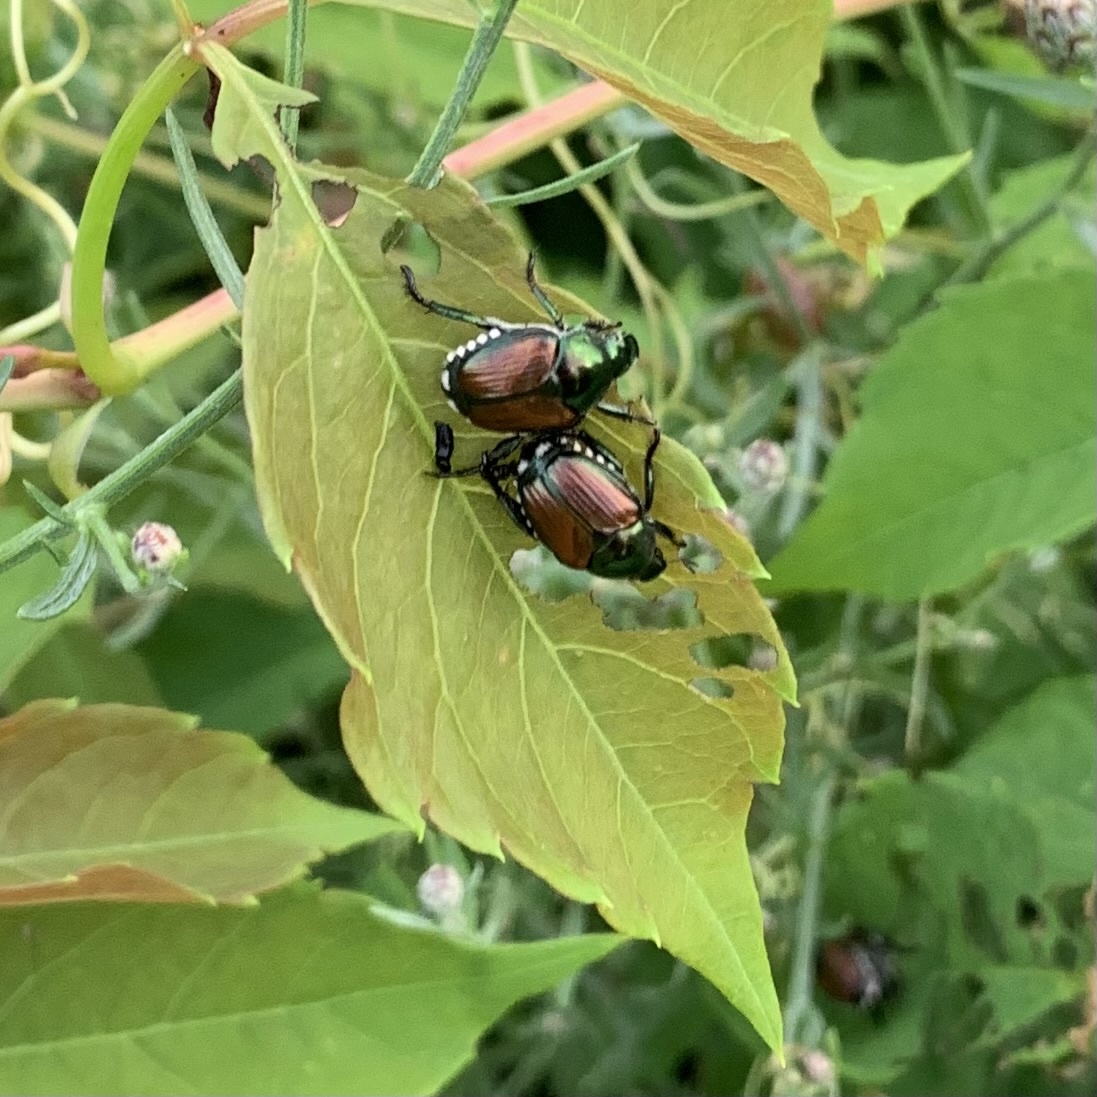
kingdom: Animalia
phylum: Arthropoda
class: Insecta
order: Coleoptera
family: Scarabaeidae
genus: Popillia
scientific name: Popillia japonica
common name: Japanese beetle
